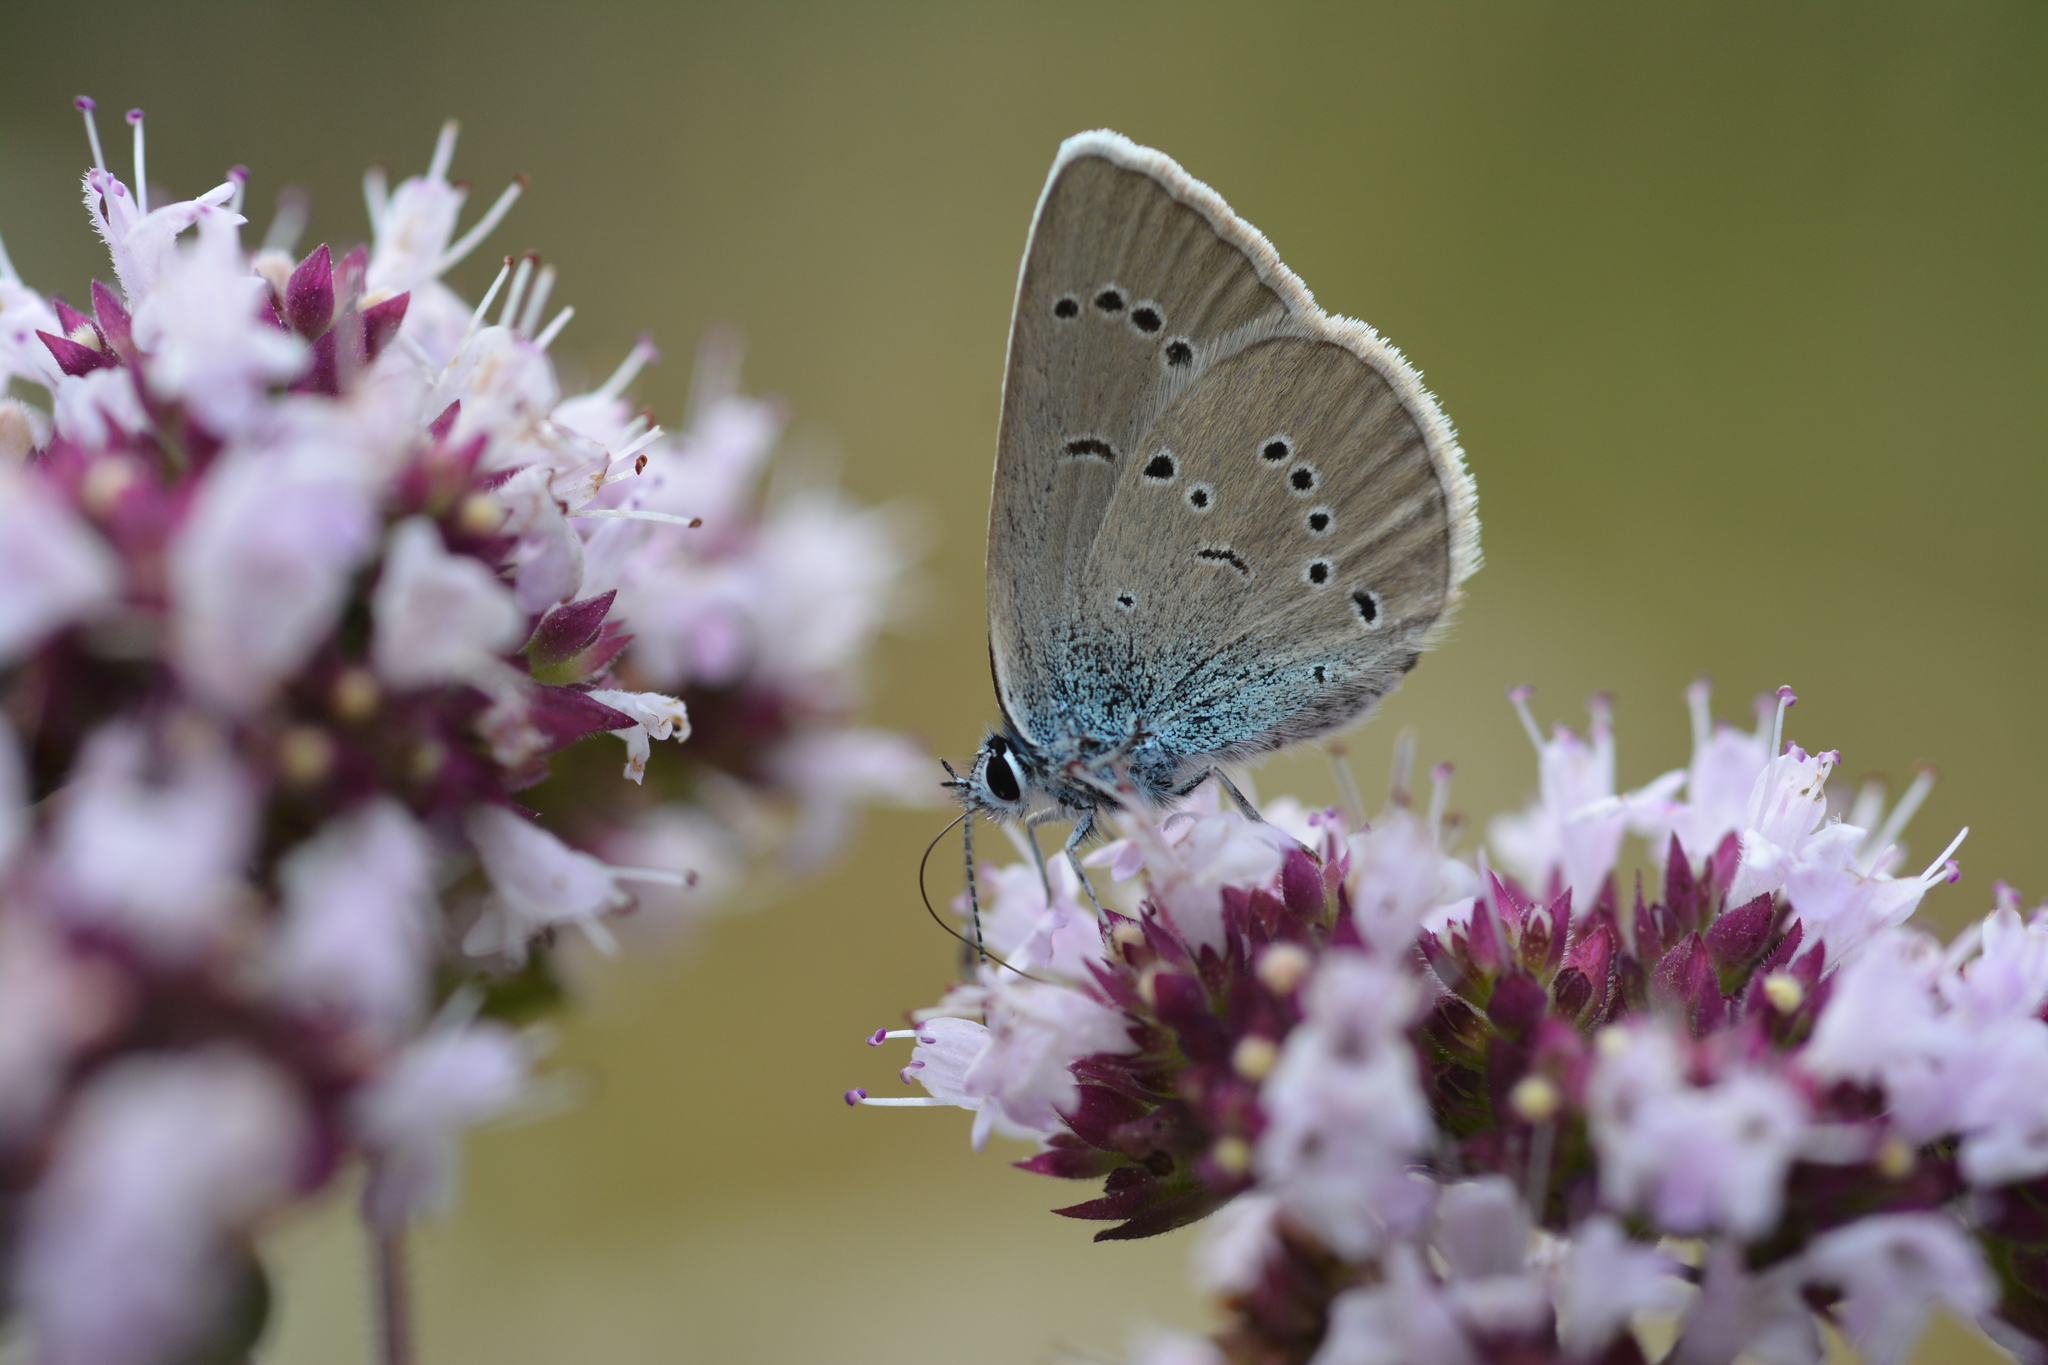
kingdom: Animalia
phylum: Arthropoda
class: Insecta
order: Lepidoptera
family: Lycaenidae
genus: Cyaniris
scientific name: Cyaniris semiargus
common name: Mazarine blue
